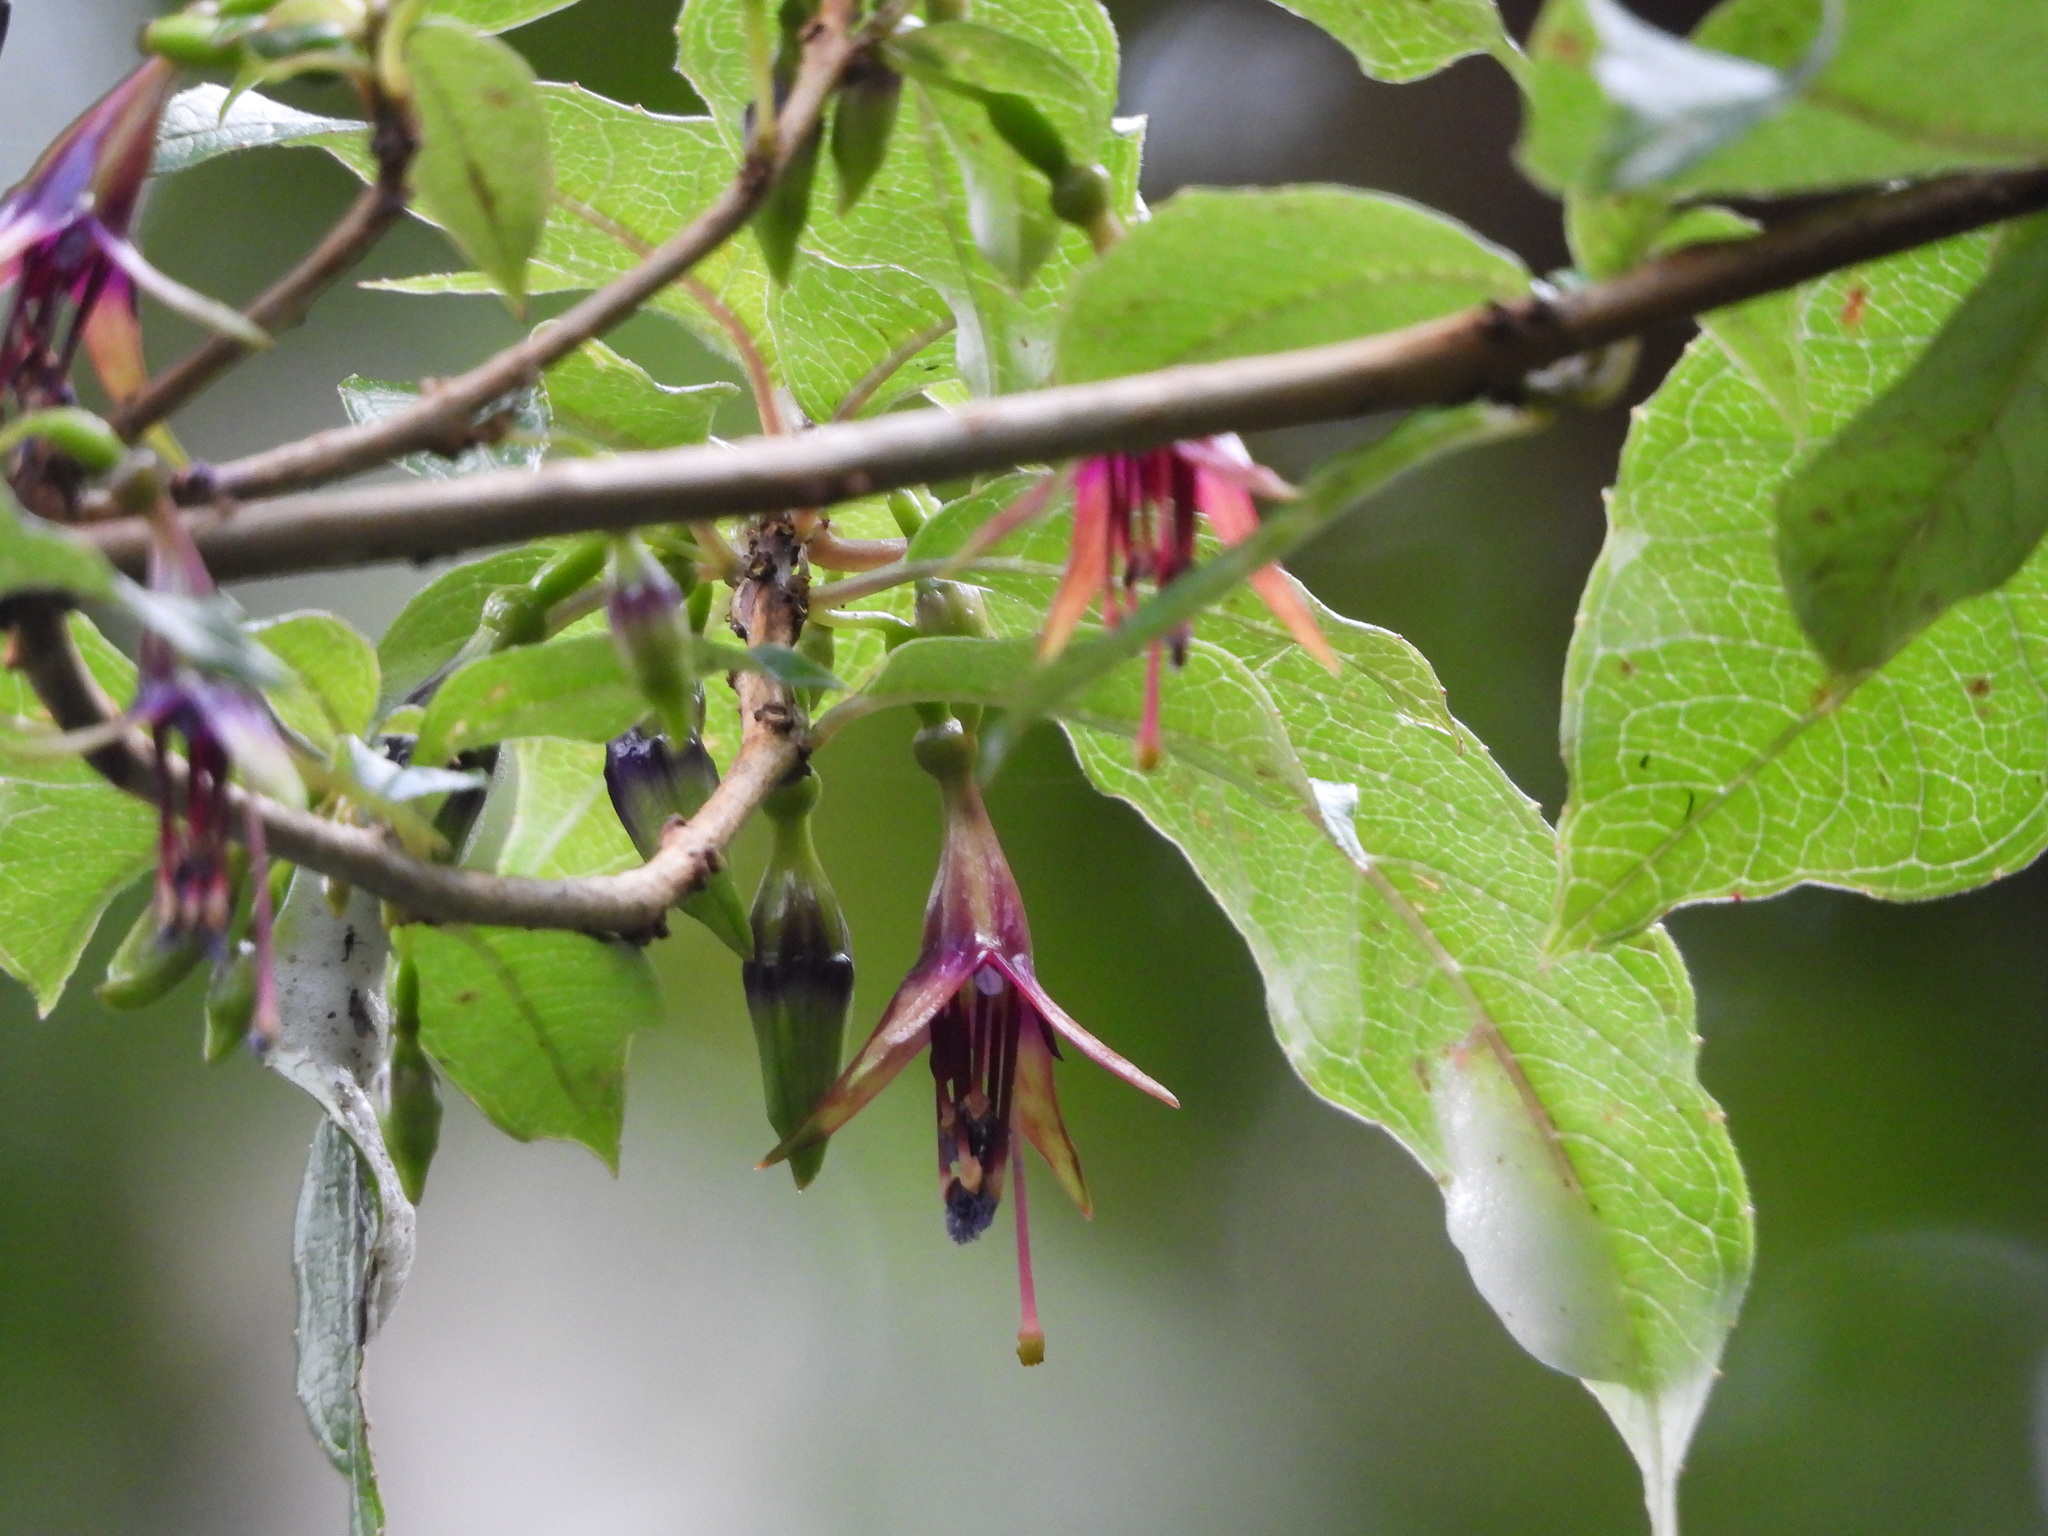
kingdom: Plantae
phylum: Tracheophyta
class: Magnoliopsida
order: Myrtales
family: Onagraceae
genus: Fuchsia
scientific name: Fuchsia excorticata
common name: Tree fuchsia
